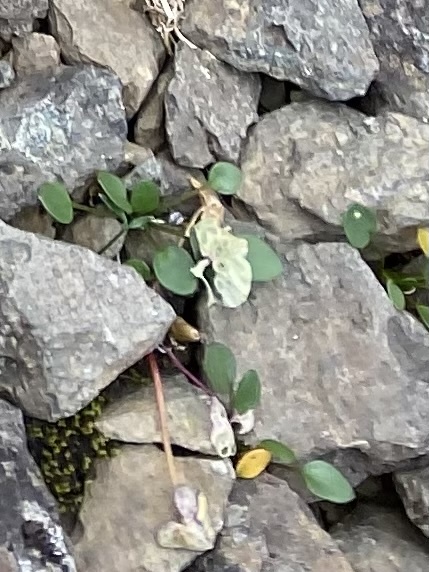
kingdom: Plantae
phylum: Tracheophyta
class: Magnoliopsida
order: Brassicales
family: Brassicaceae
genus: Cardamine
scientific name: Cardamine bellidifolia
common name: Alpine bittercress
